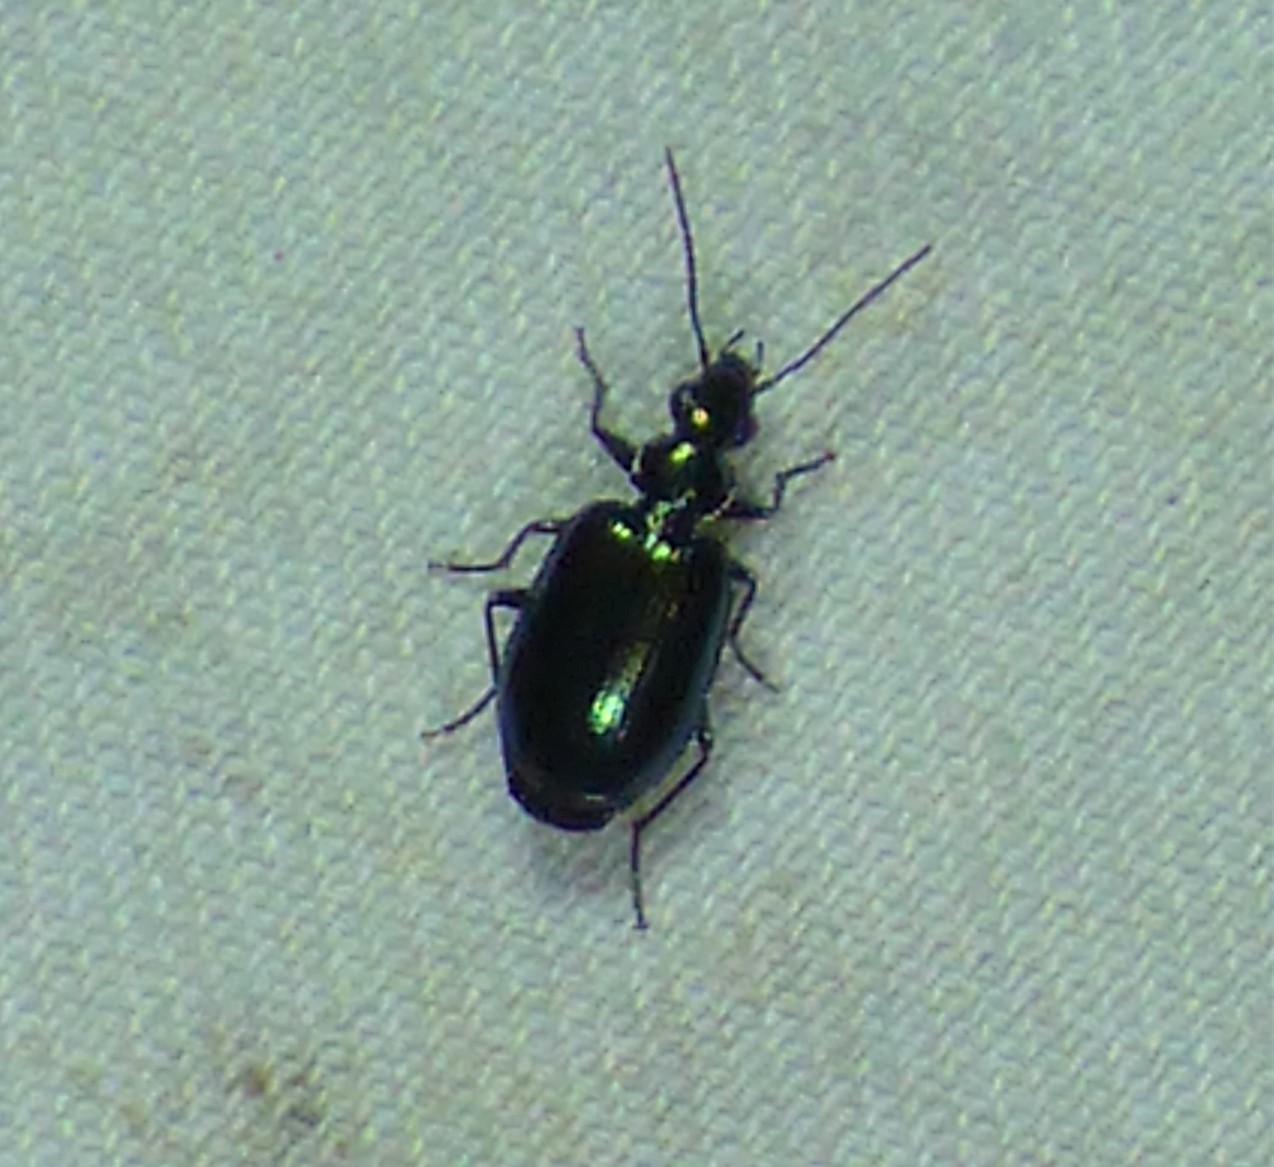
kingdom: Animalia
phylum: Arthropoda
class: Insecta
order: Coleoptera
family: Carabidae
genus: Lebia
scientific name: Lebia viridis
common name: Flower lebia beetle
